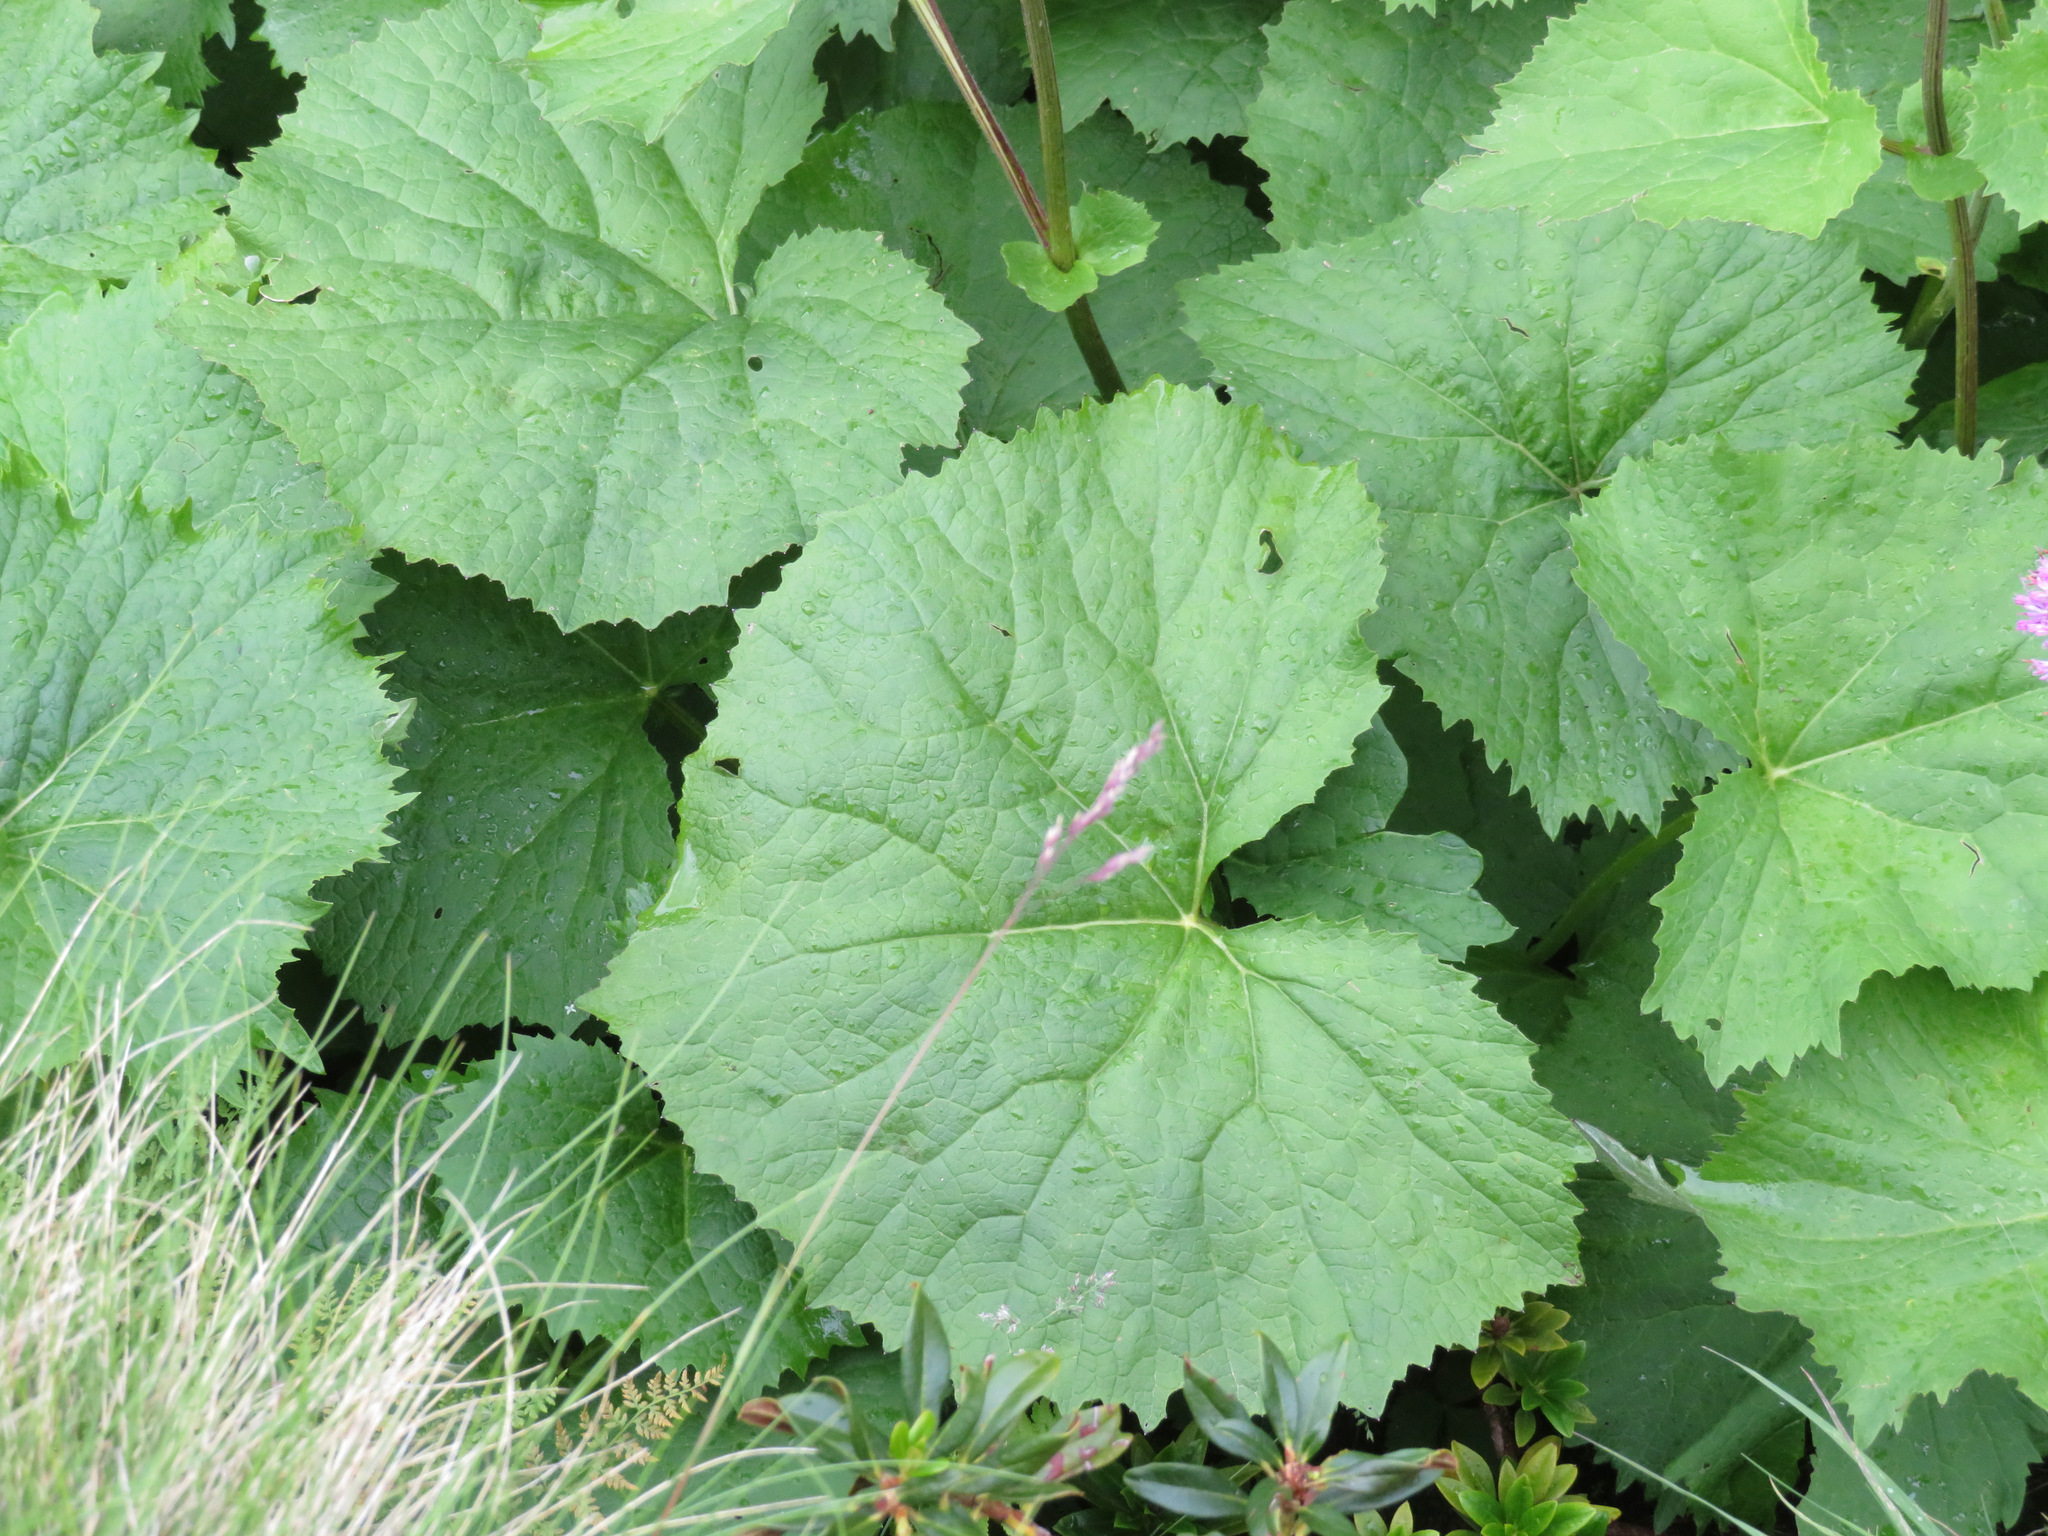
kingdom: Plantae
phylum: Tracheophyta
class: Magnoliopsida
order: Asterales
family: Asteraceae
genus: Adenostyles
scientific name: Adenostyles alliariae
